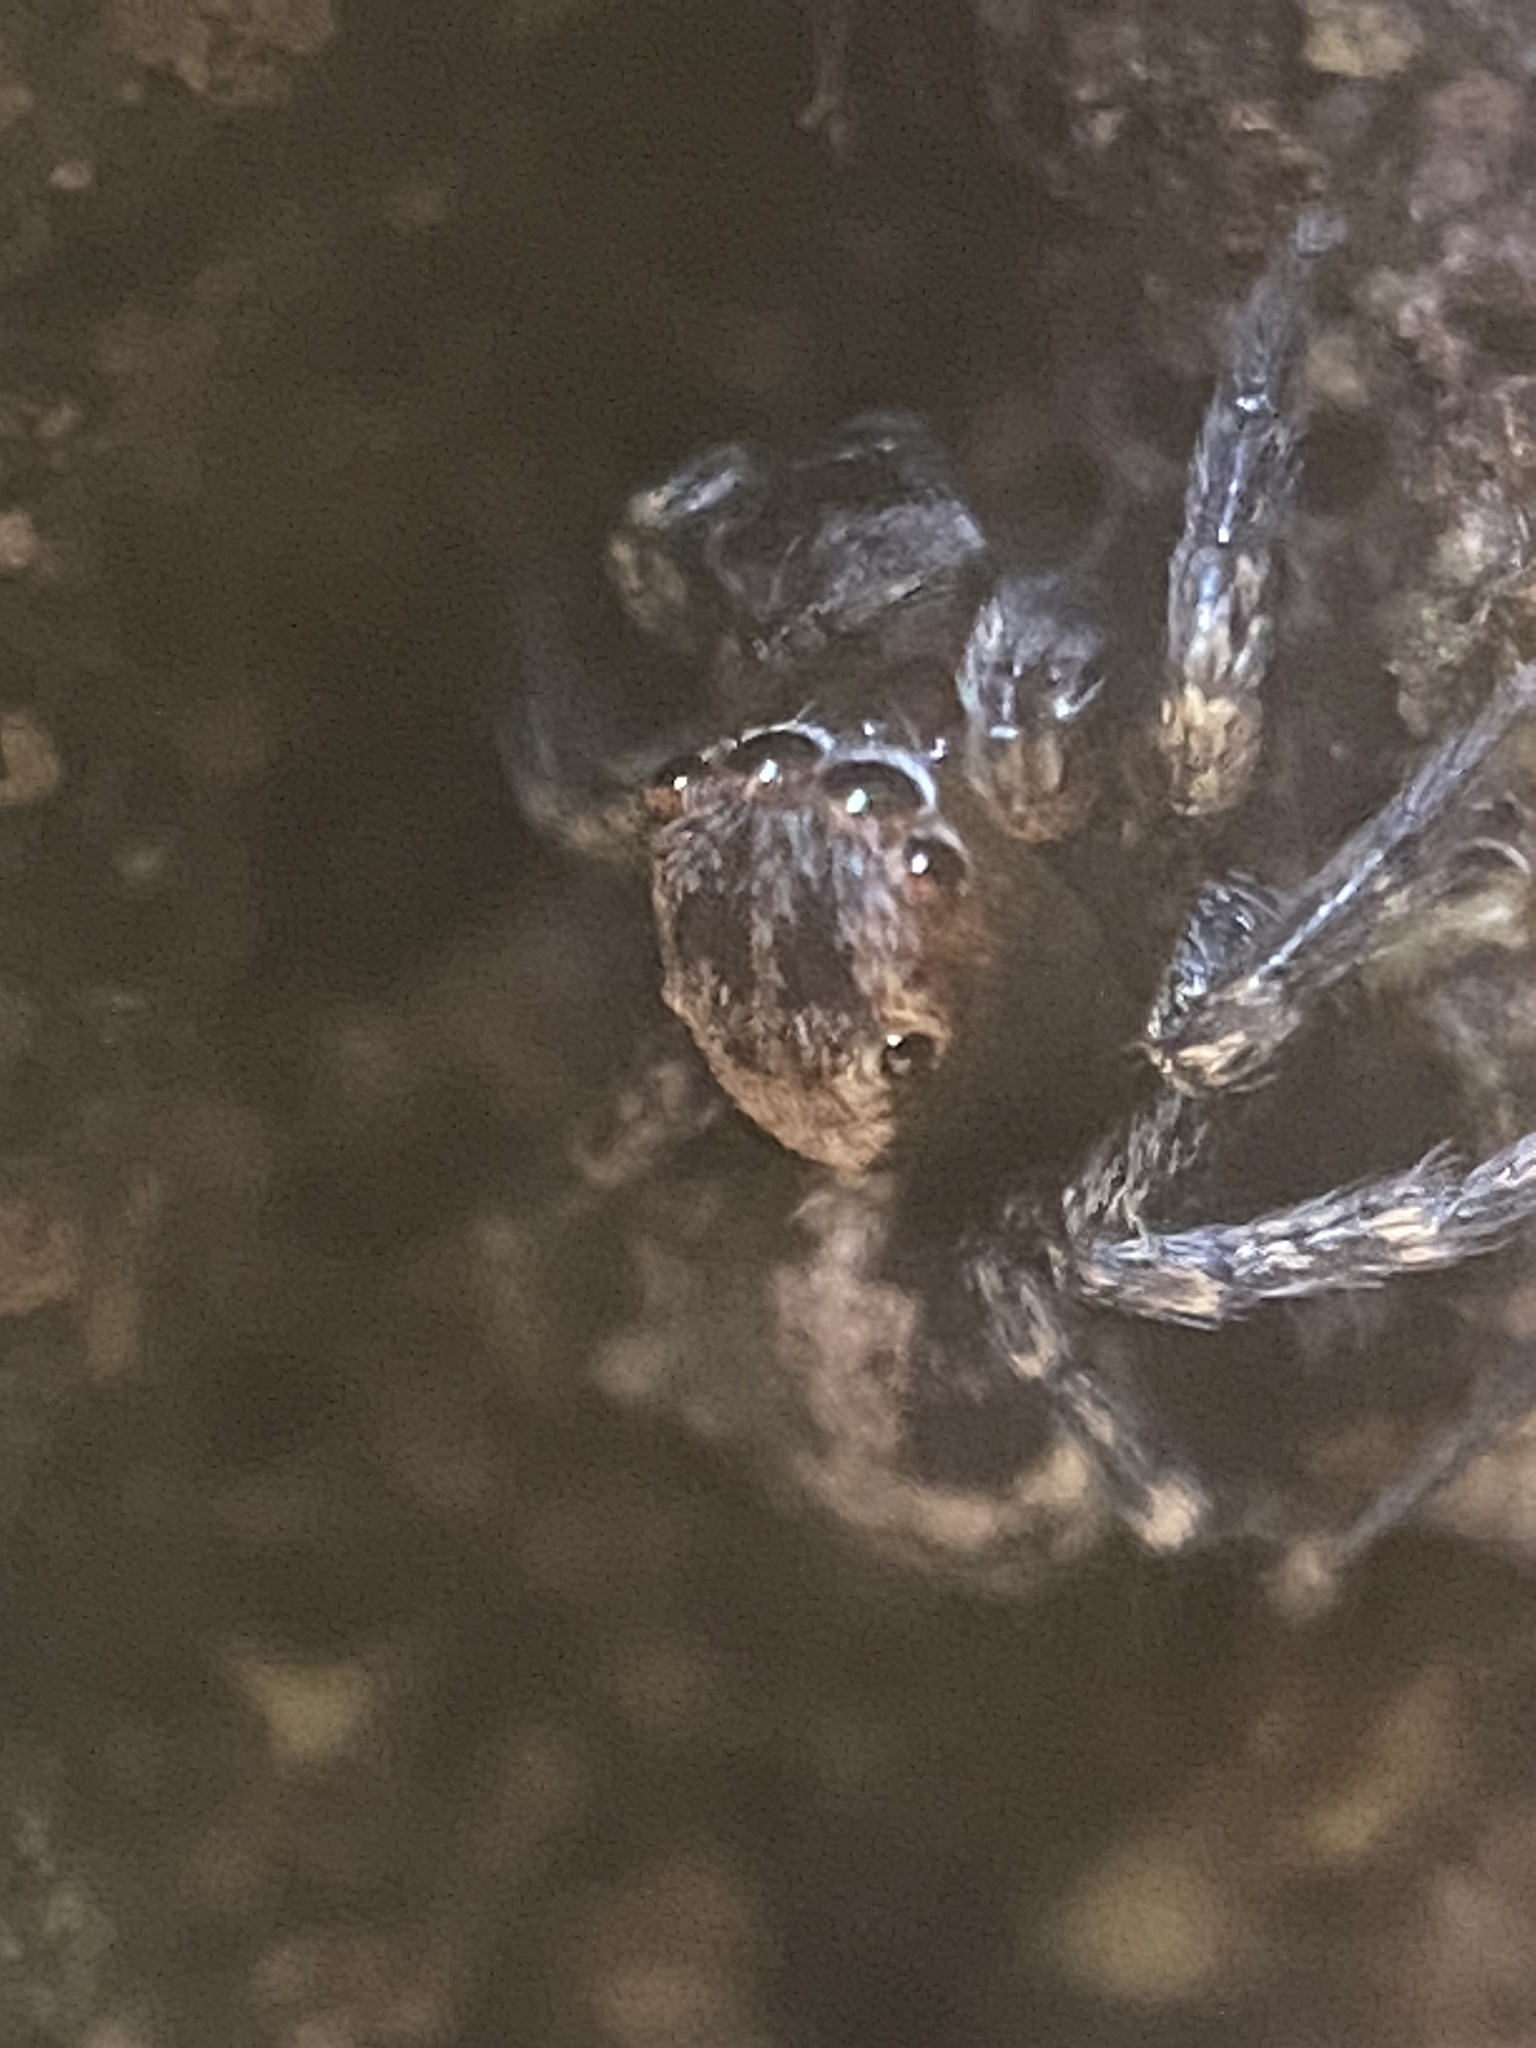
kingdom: Animalia
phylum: Arthropoda
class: Arachnida
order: Araneae
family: Salticidae
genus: Naphrys
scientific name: Naphrys pulex
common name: Flea jumping spider
